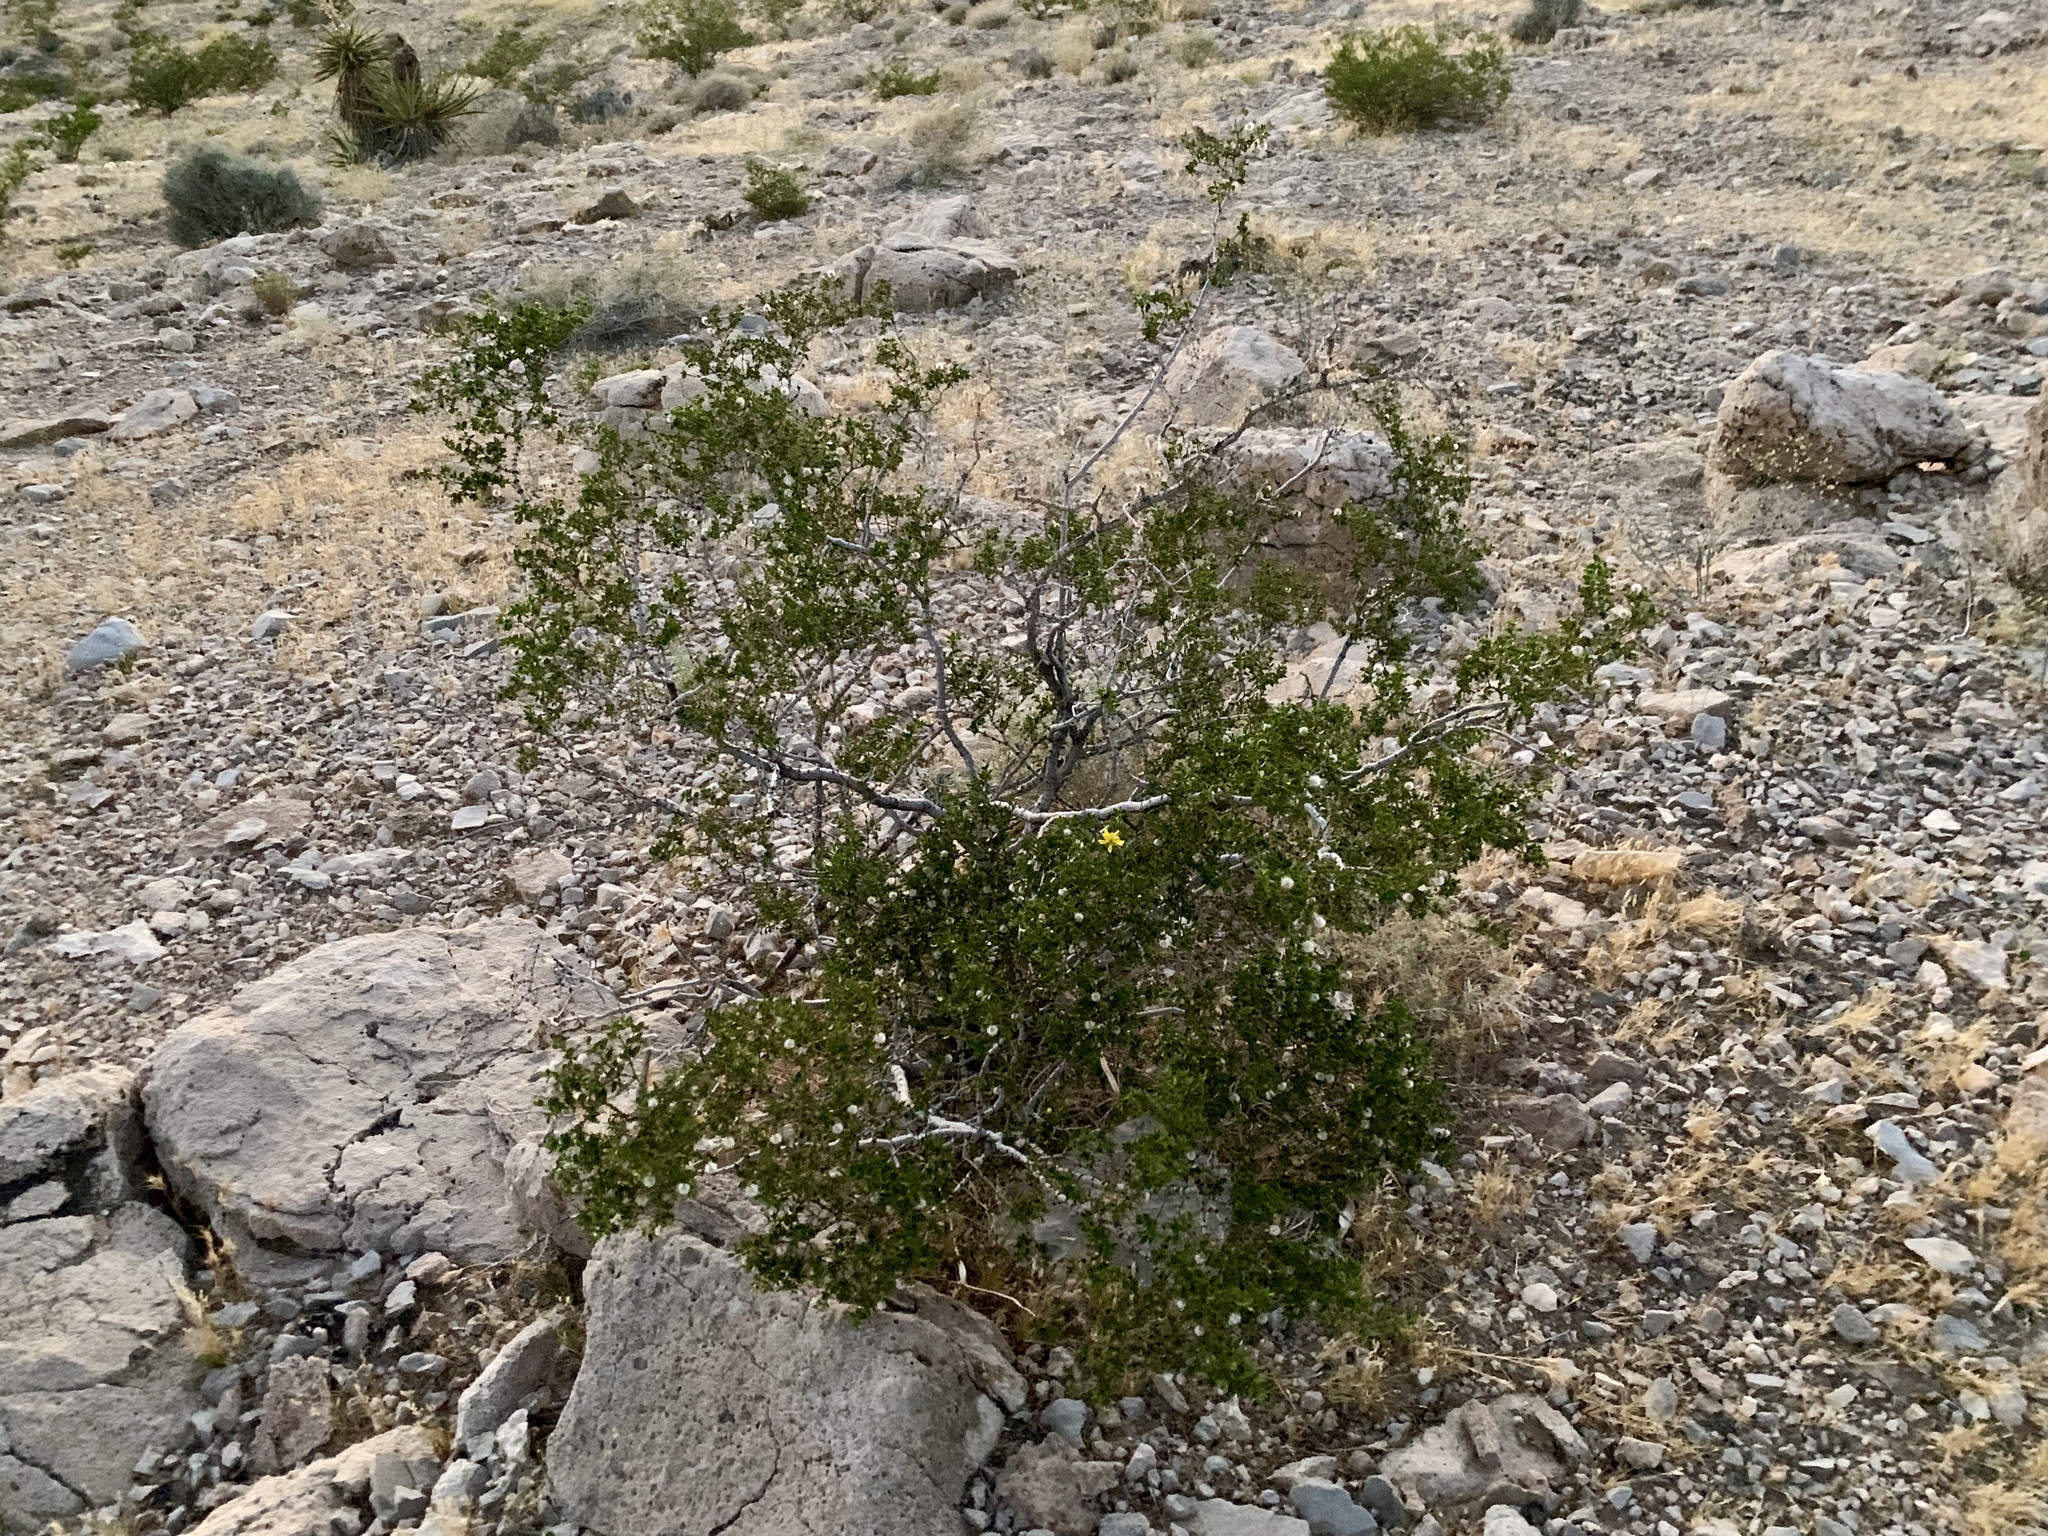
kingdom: Plantae
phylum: Tracheophyta
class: Magnoliopsida
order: Zygophyllales
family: Zygophyllaceae
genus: Larrea
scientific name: Larrea tridentata
